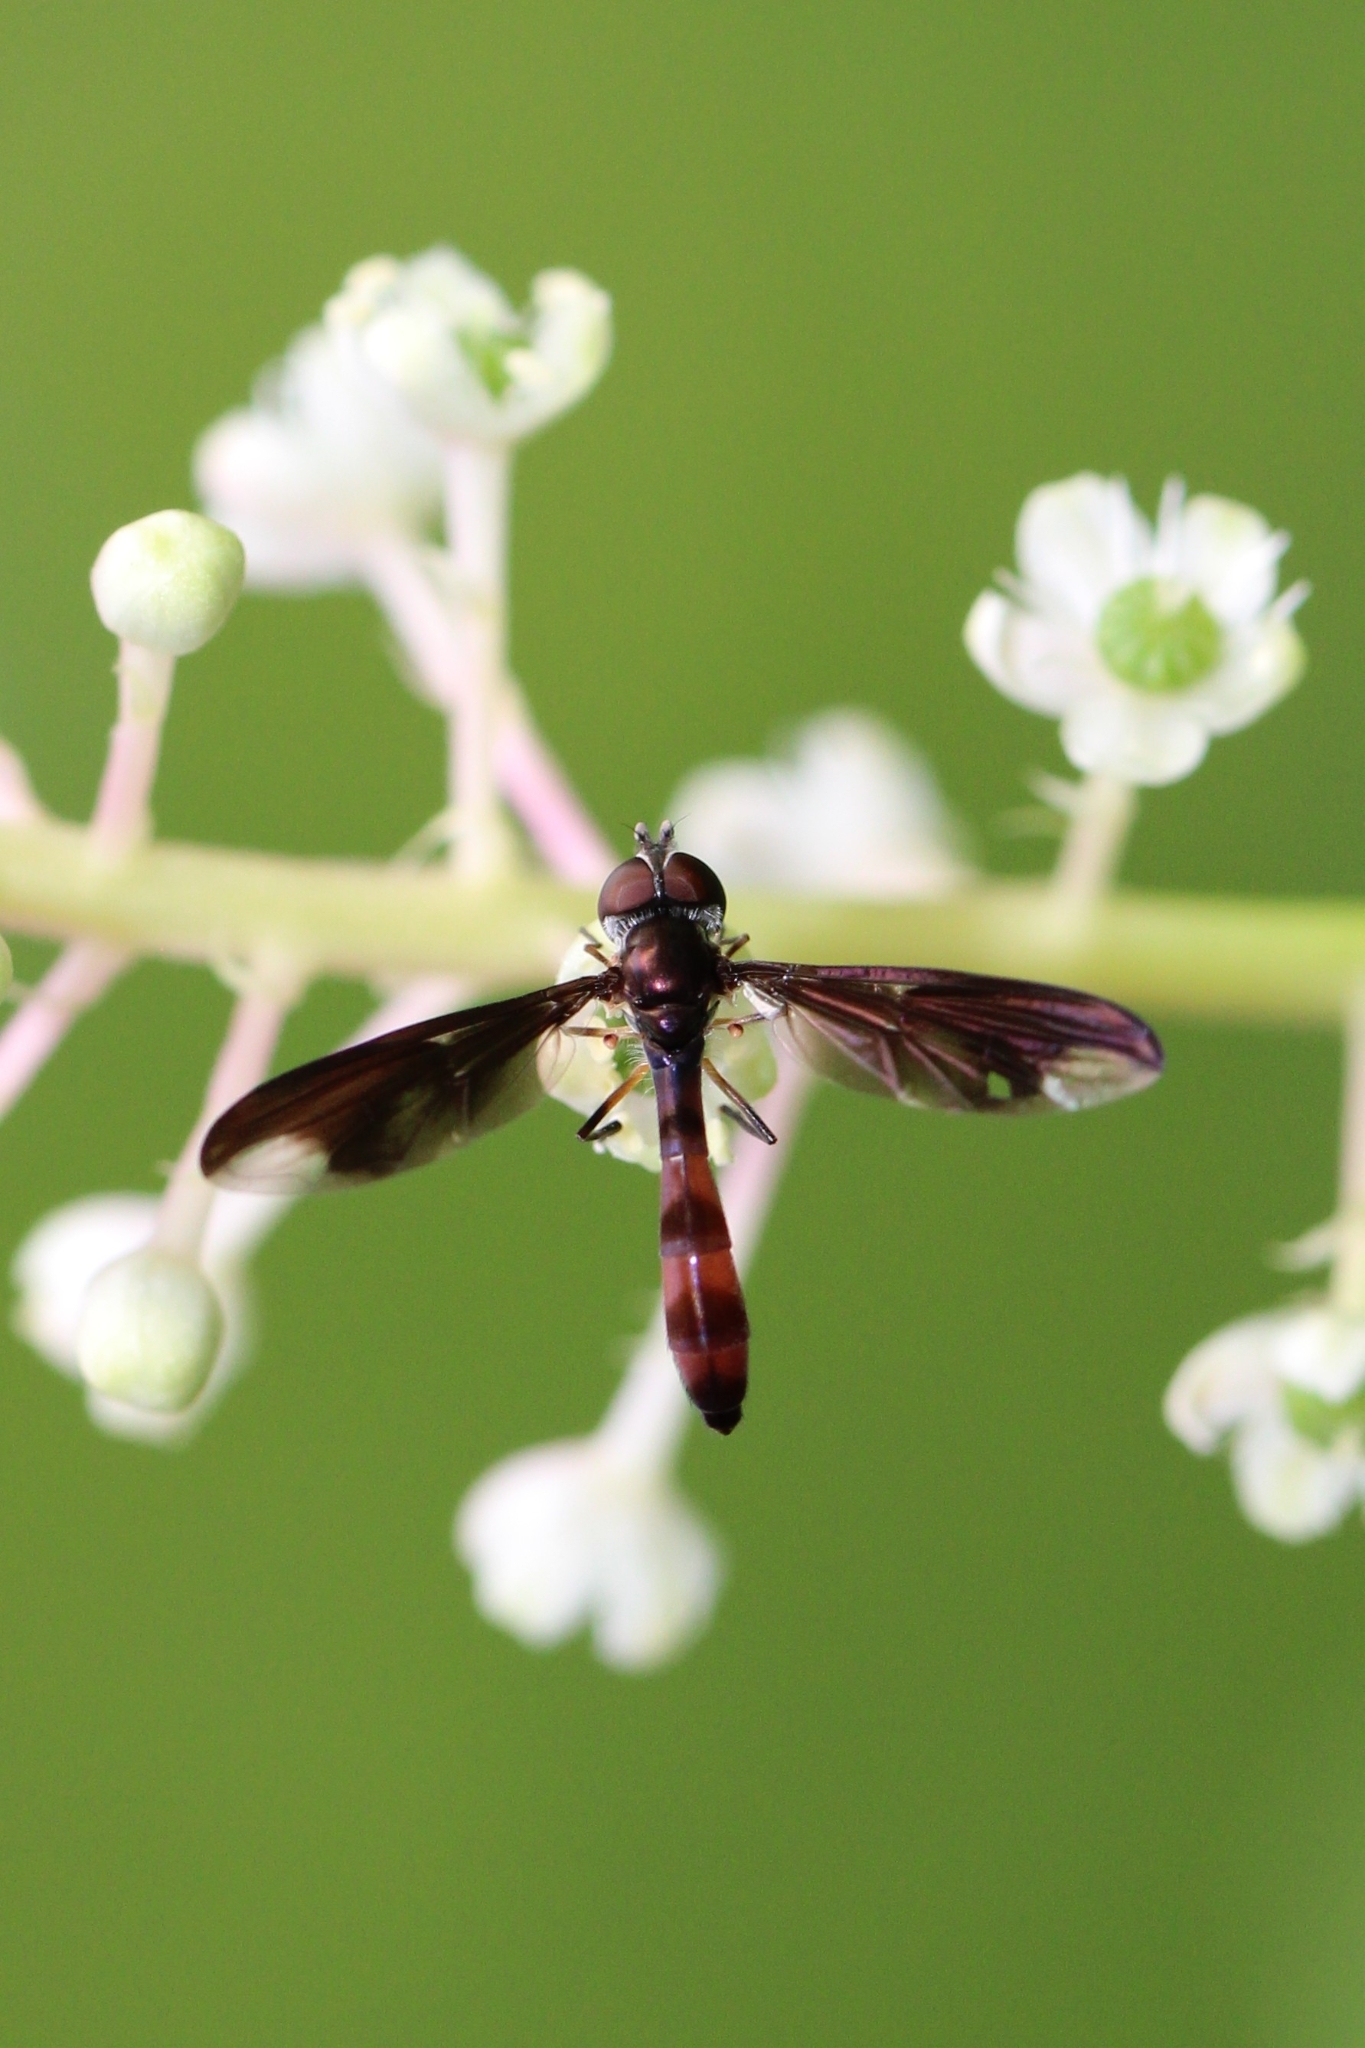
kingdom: Animalia
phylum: Arthropoda
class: Insecta
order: Diptera
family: Syrphidae
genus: Ocyptamus
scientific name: Ocyptamus fuscipennis
